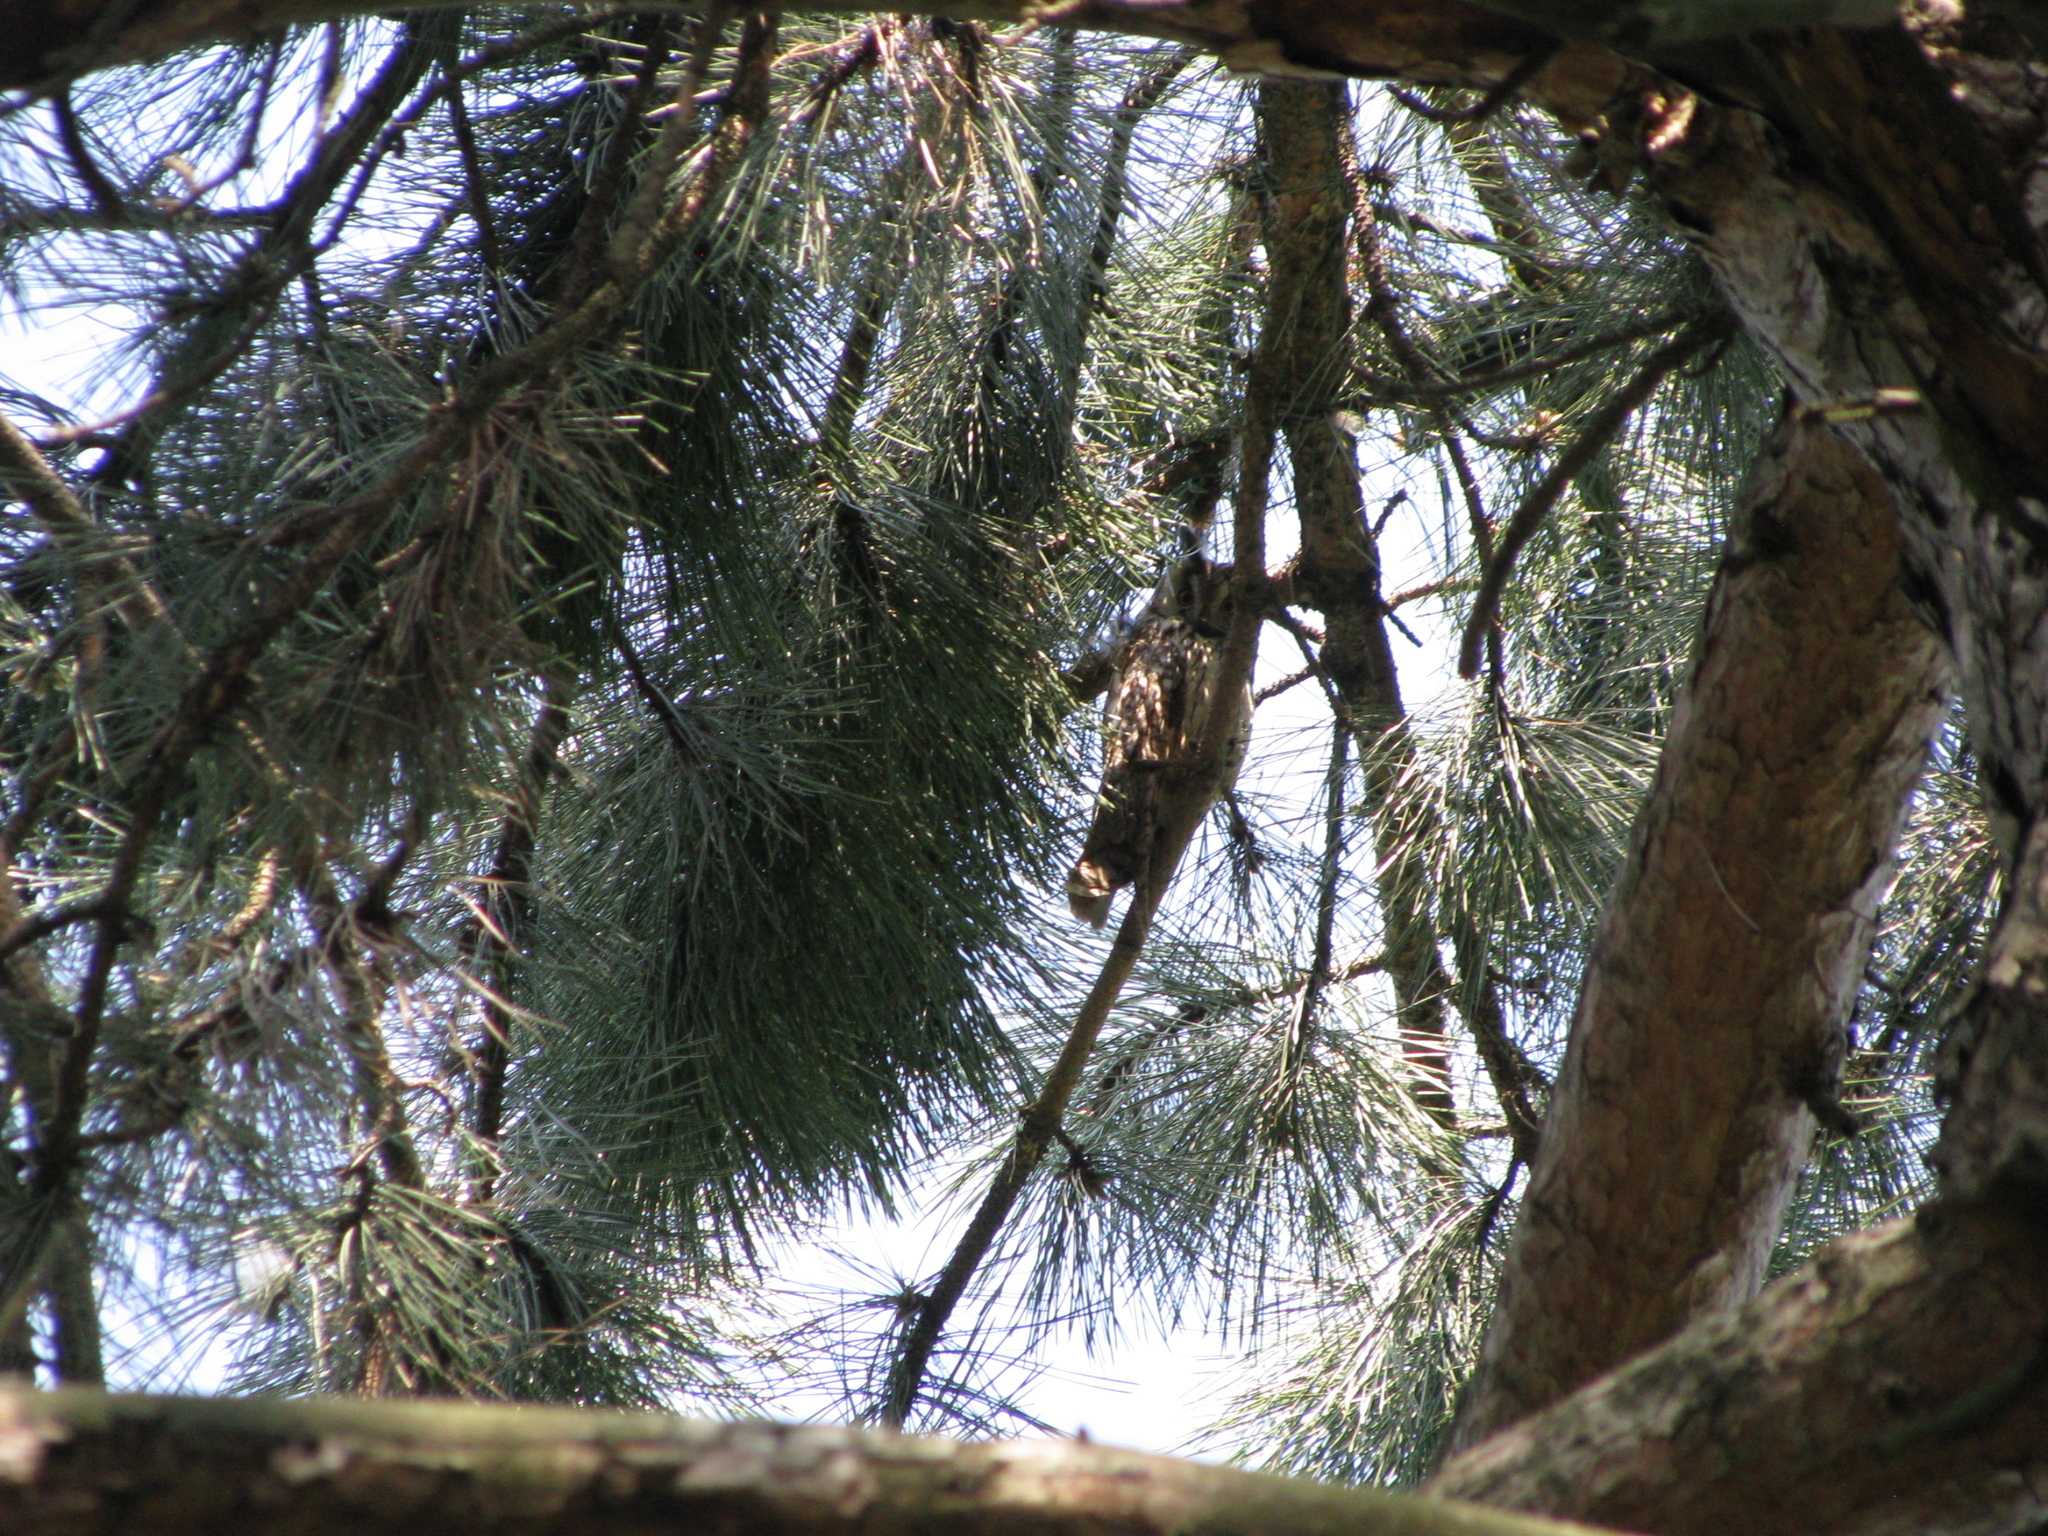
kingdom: Animalia
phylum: Chordata
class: Aves
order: Strigiformes
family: Strigidae
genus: Asio
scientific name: Asio otus
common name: Long-eared owl
